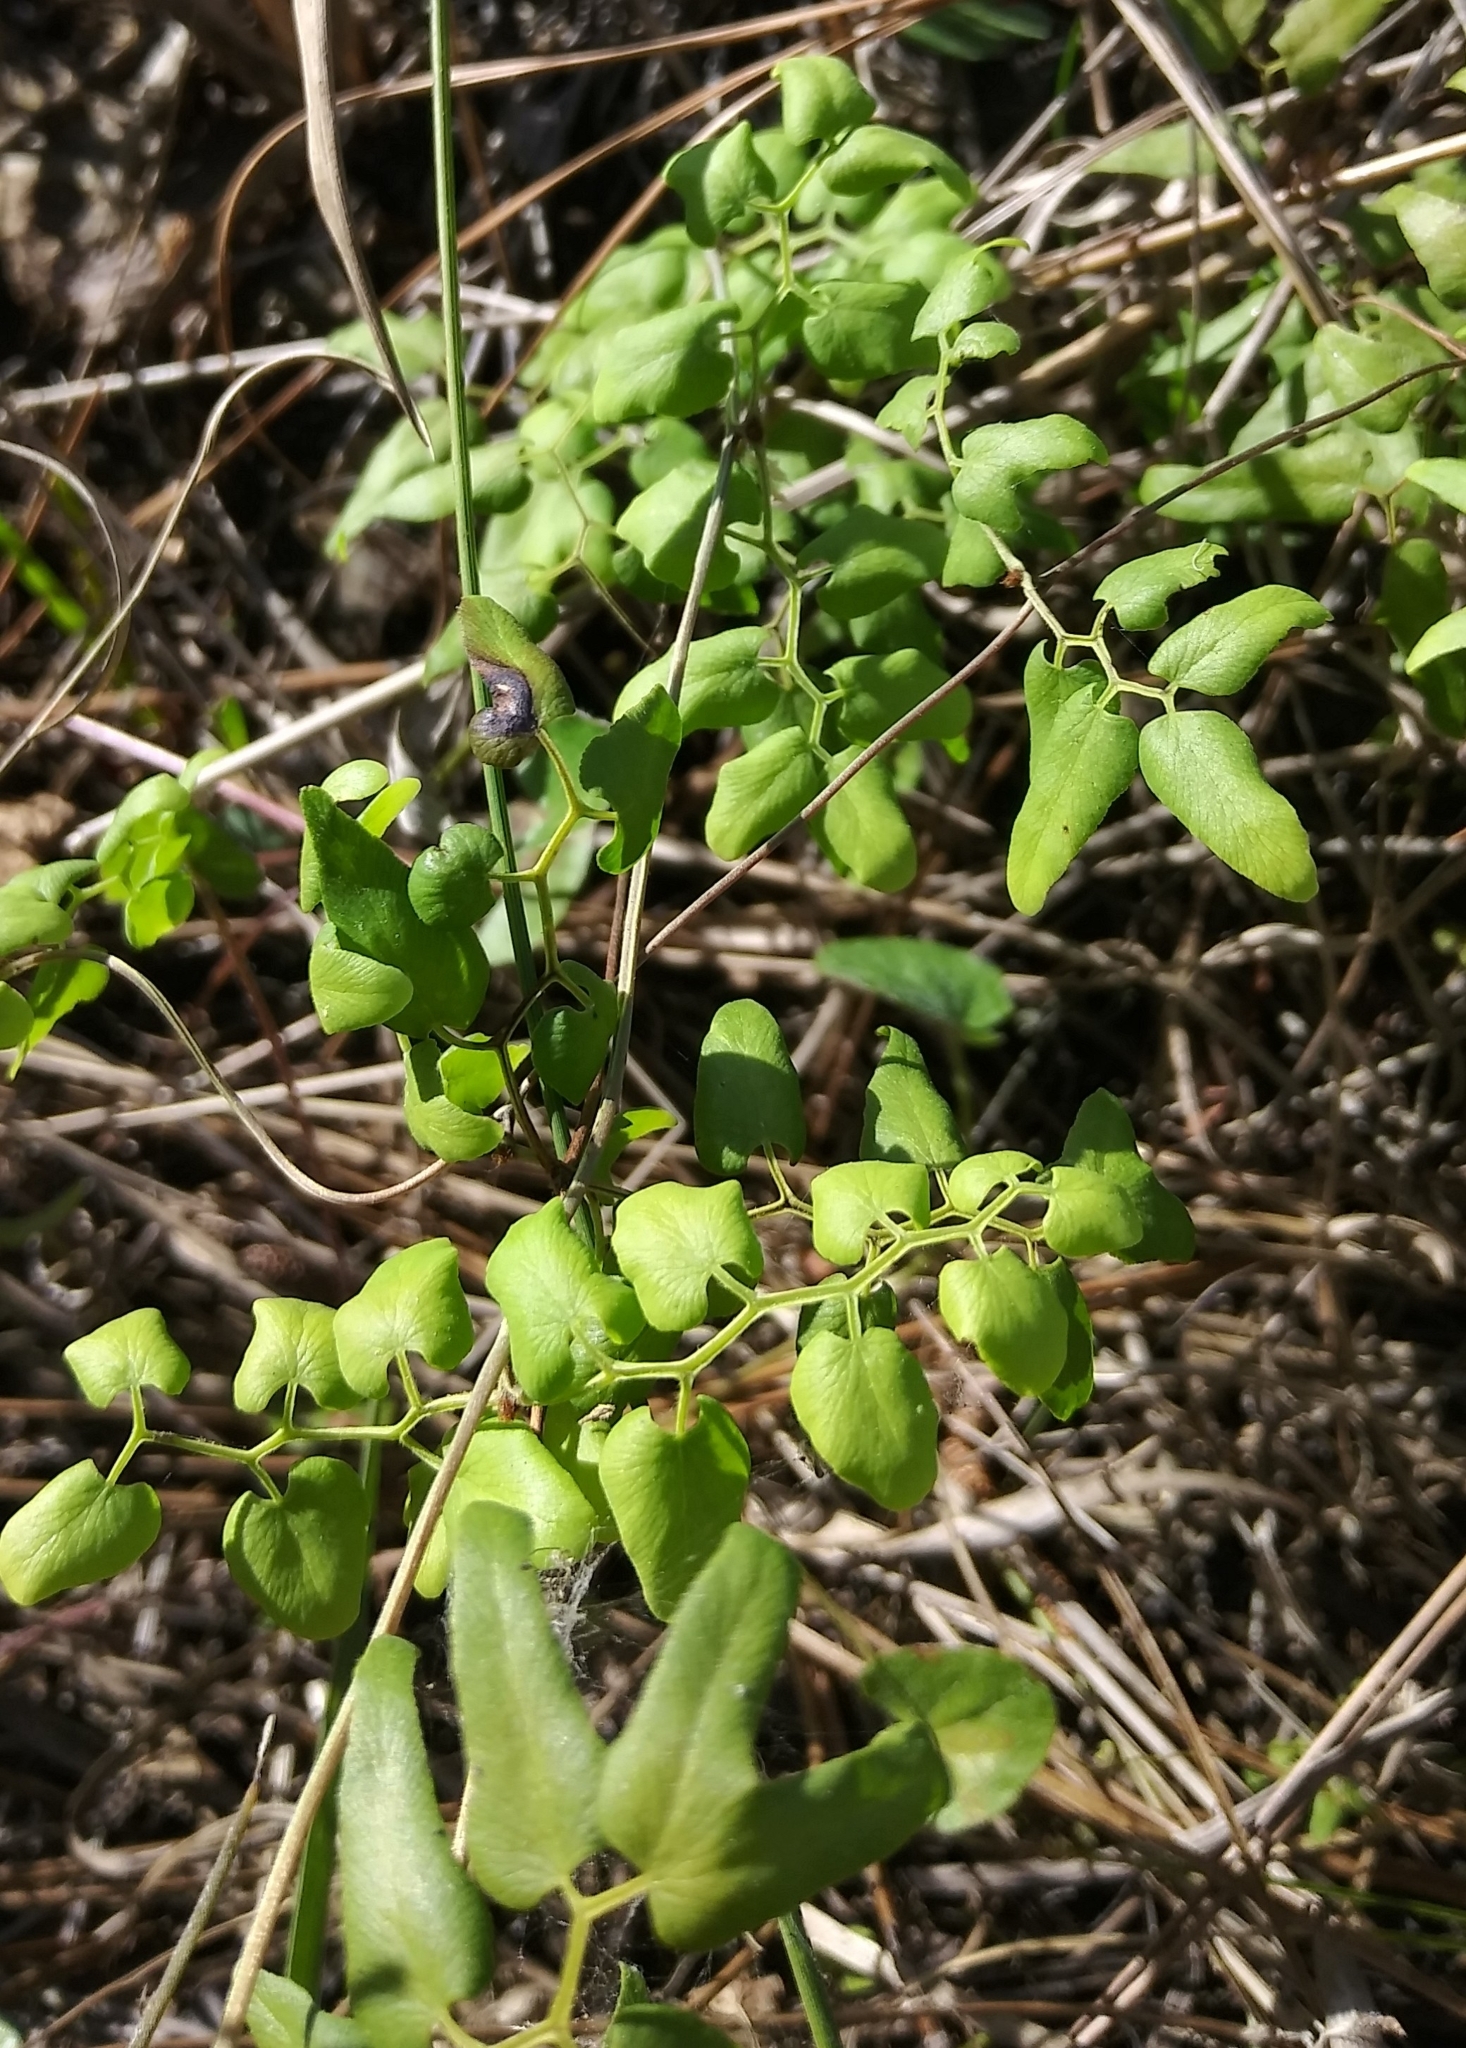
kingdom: Plantae
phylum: Tracheophyta
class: Polypodiopsida
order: Schizaeales
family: Lygodiaceae
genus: Lygodium
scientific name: Lygodium microphyllum
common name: Small-leaf climbing fern
